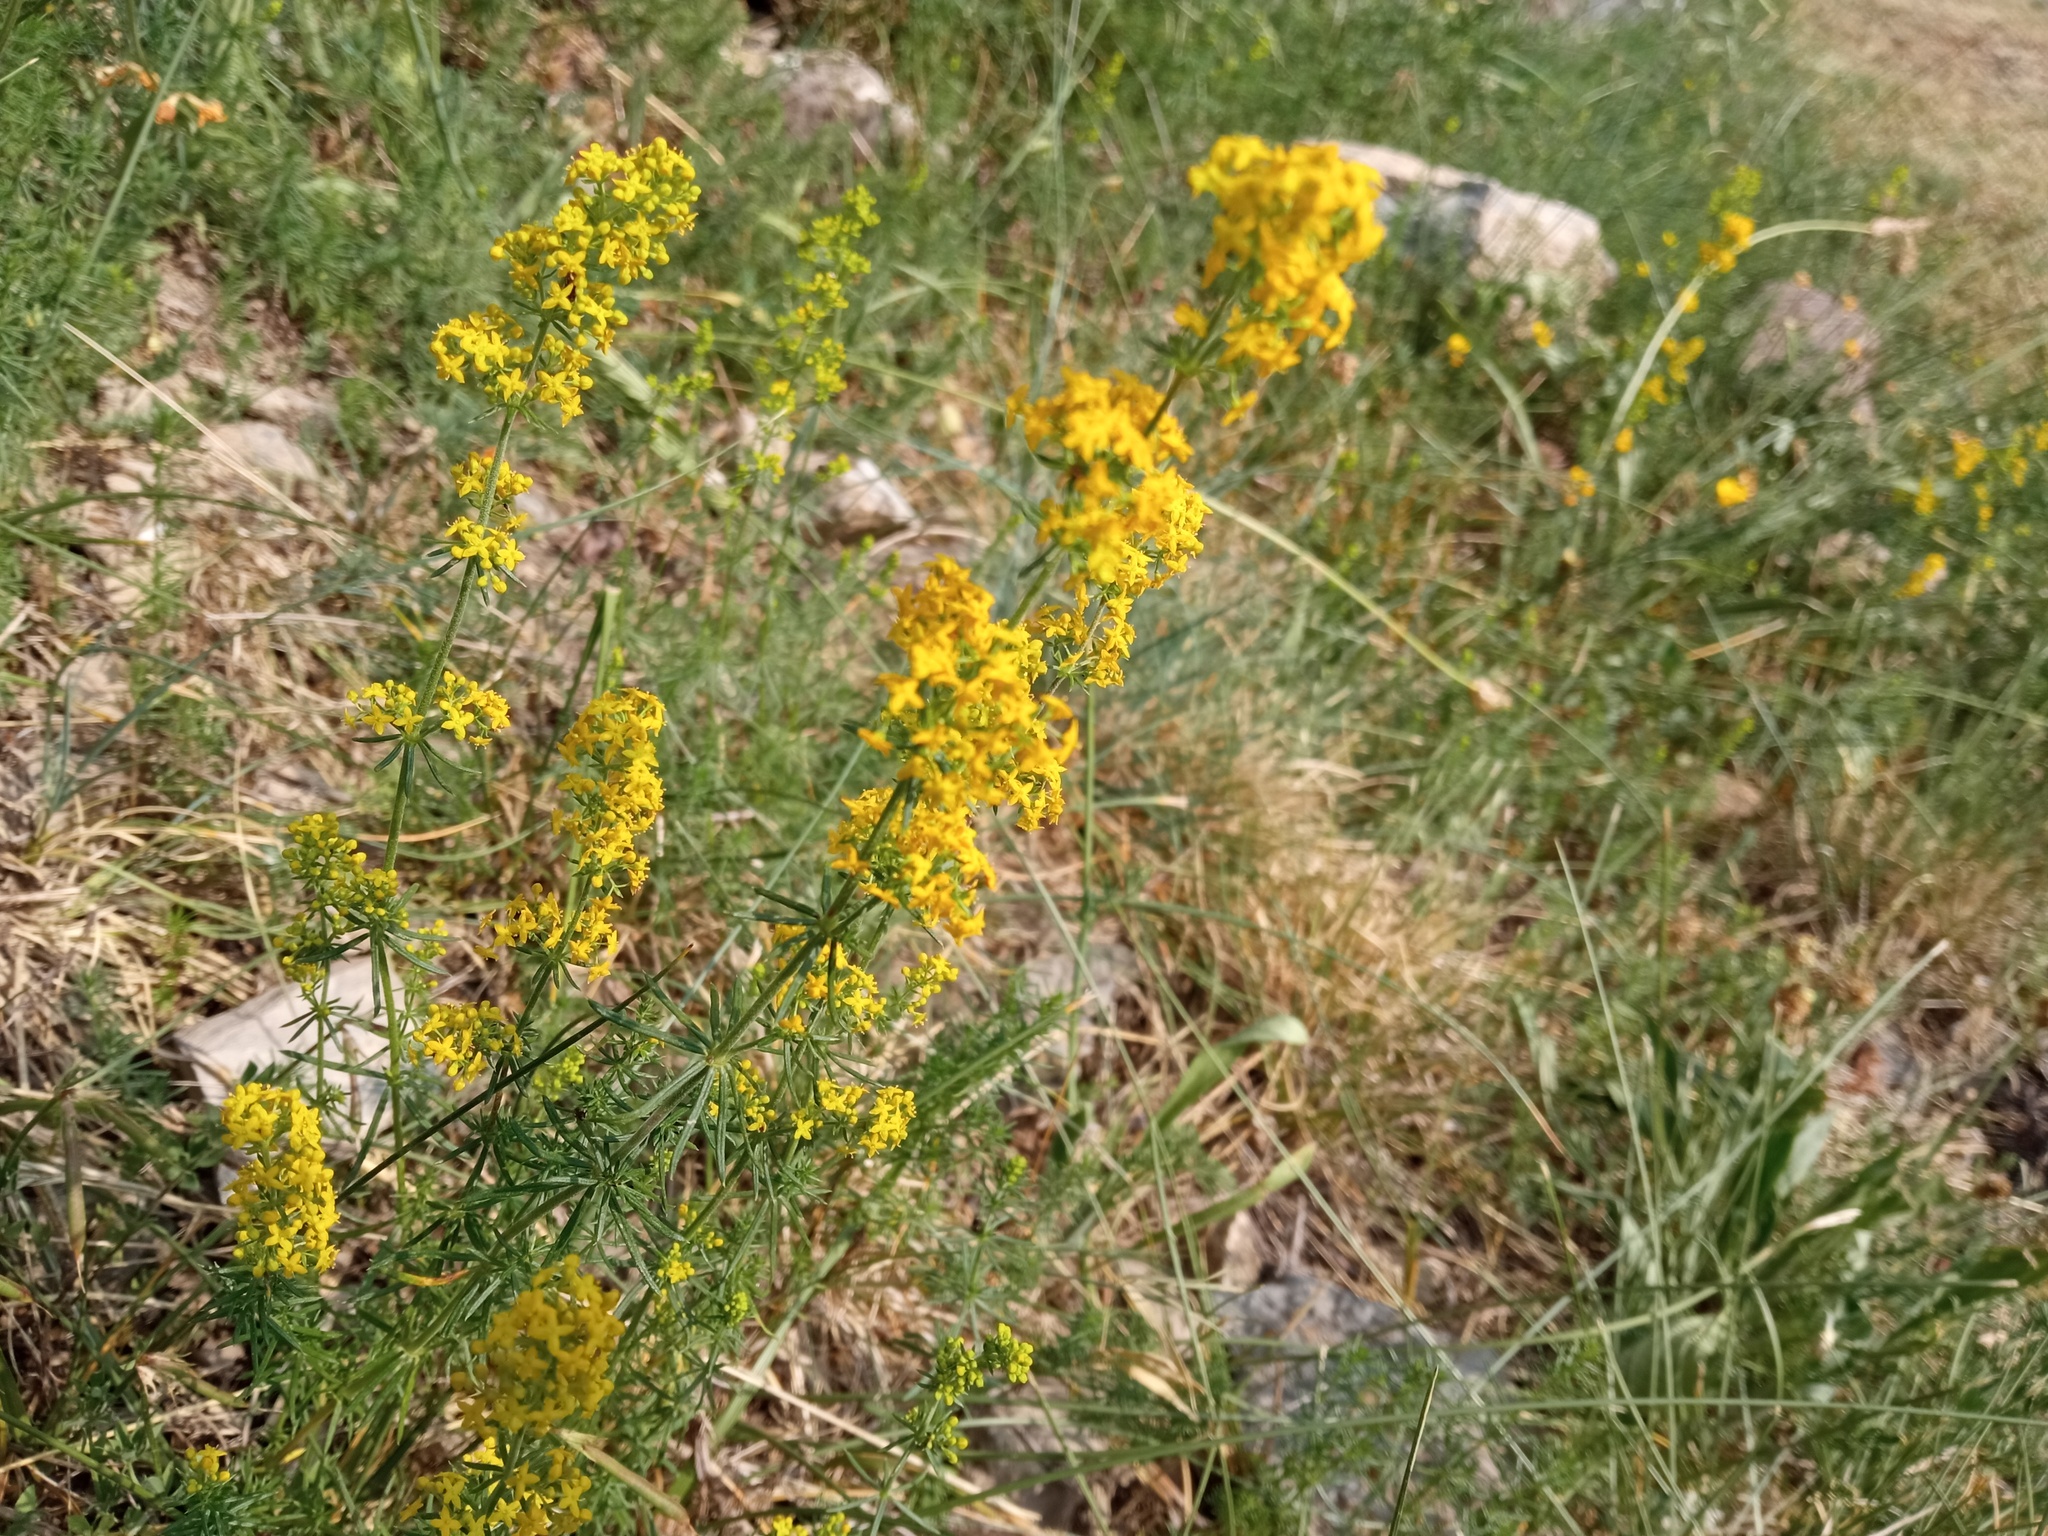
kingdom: Plantae
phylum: Tracheophyta
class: Magnoliopsida
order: Gentianales
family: Rubiaceae
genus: Galium
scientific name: Galium verum
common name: Lady's bedstraw
